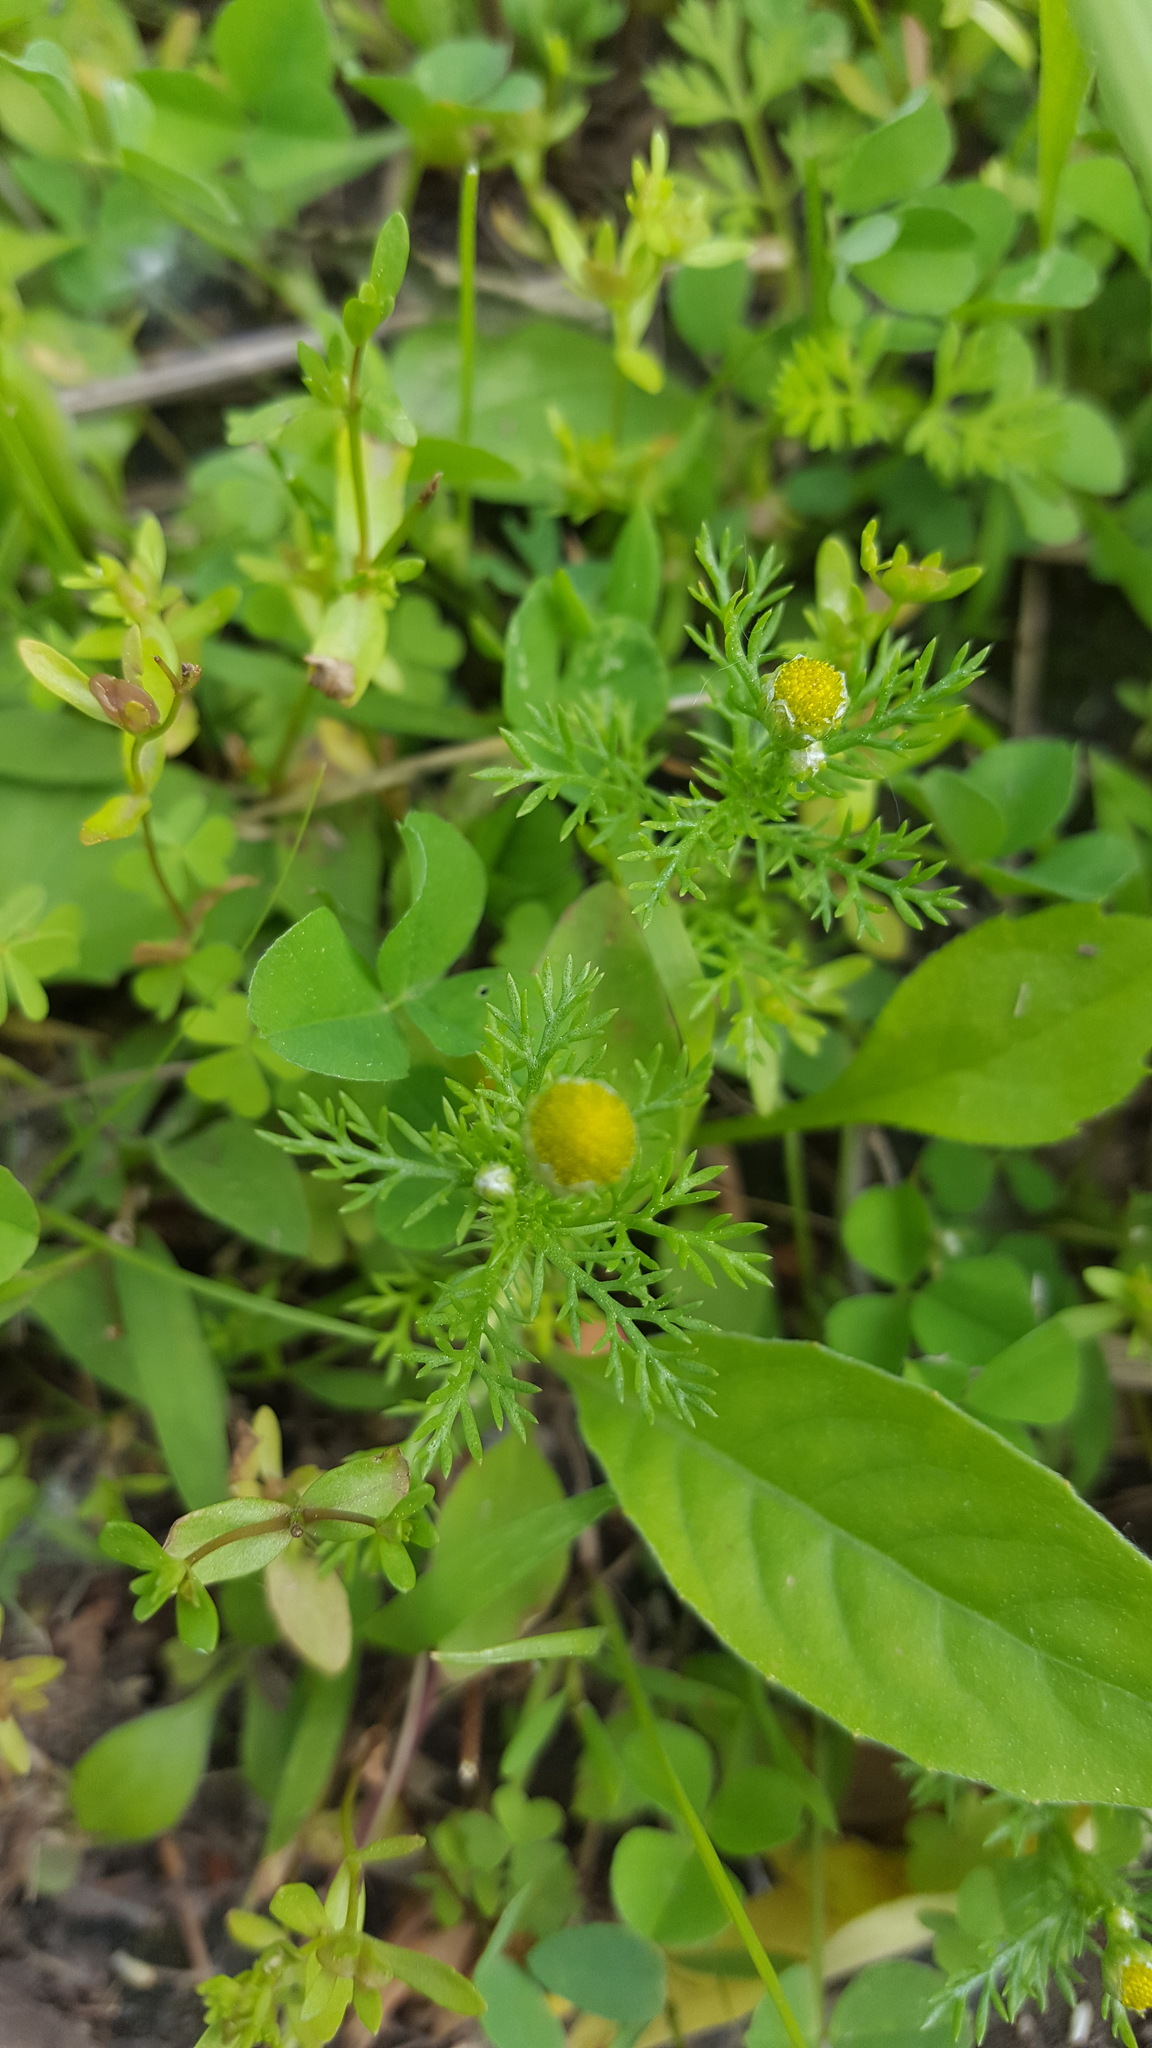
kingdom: Plantae
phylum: Tracheophyta
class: Magnoliopsida
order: Asterales
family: Asteraceae
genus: Matricaria
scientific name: Matricaria discoidea
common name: Disc mayweed
